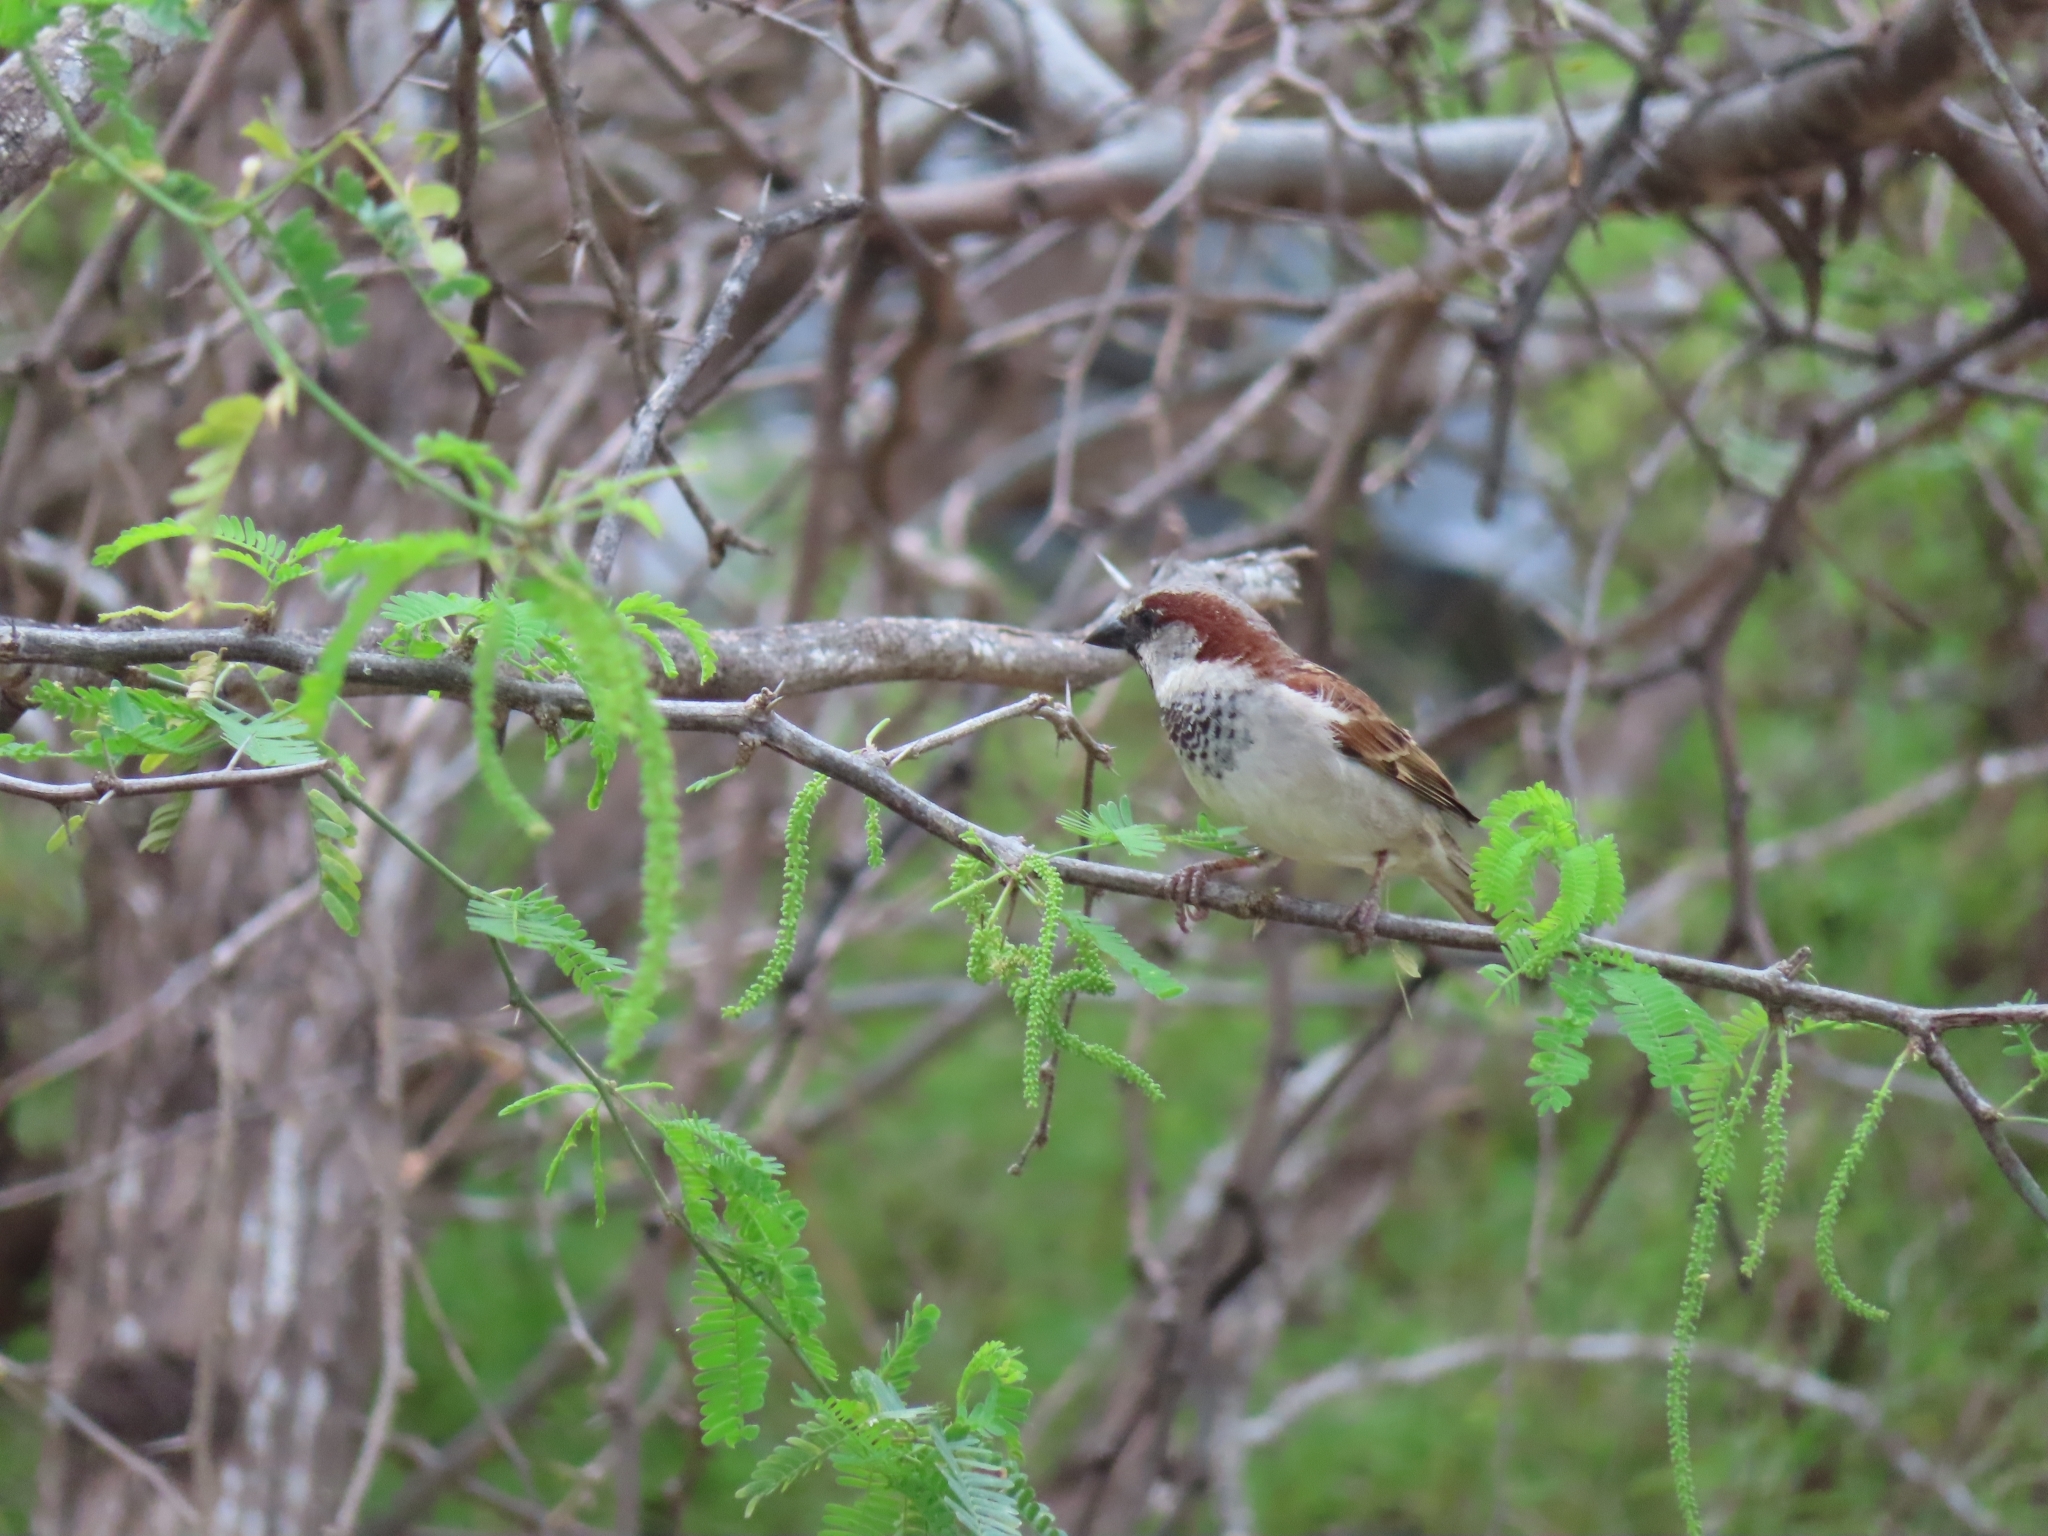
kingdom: Animalia
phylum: Chordata
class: Aves
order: Passeriformes
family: Passeridae
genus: Passer
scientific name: Passer domesticus
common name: House sparrow
